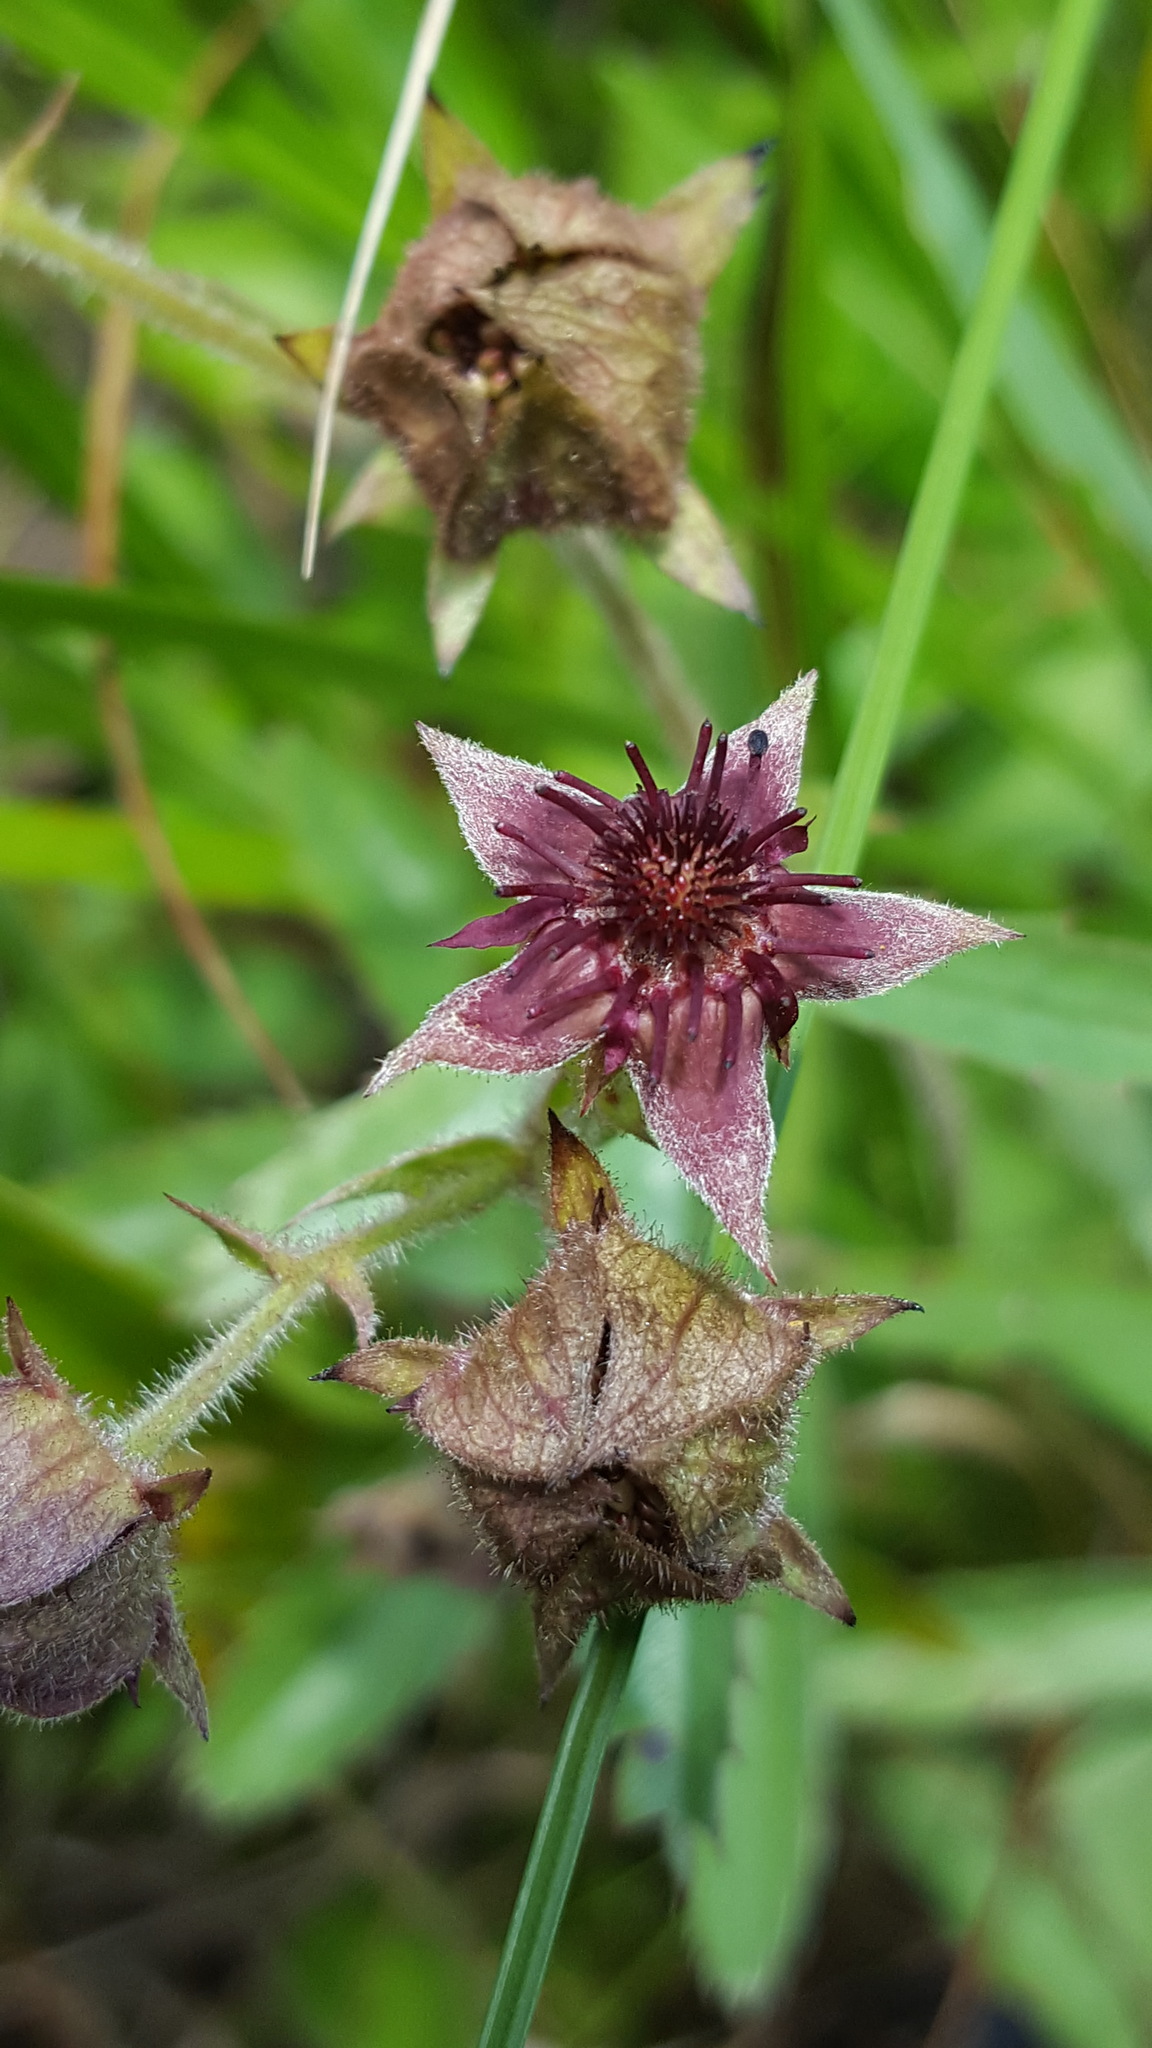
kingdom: Plantae
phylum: Tracheophyta
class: Magnoliopsida
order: Rosales
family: Rosaceae
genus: Comarum
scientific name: Comarum palustre
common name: Marsh cinquefoil
